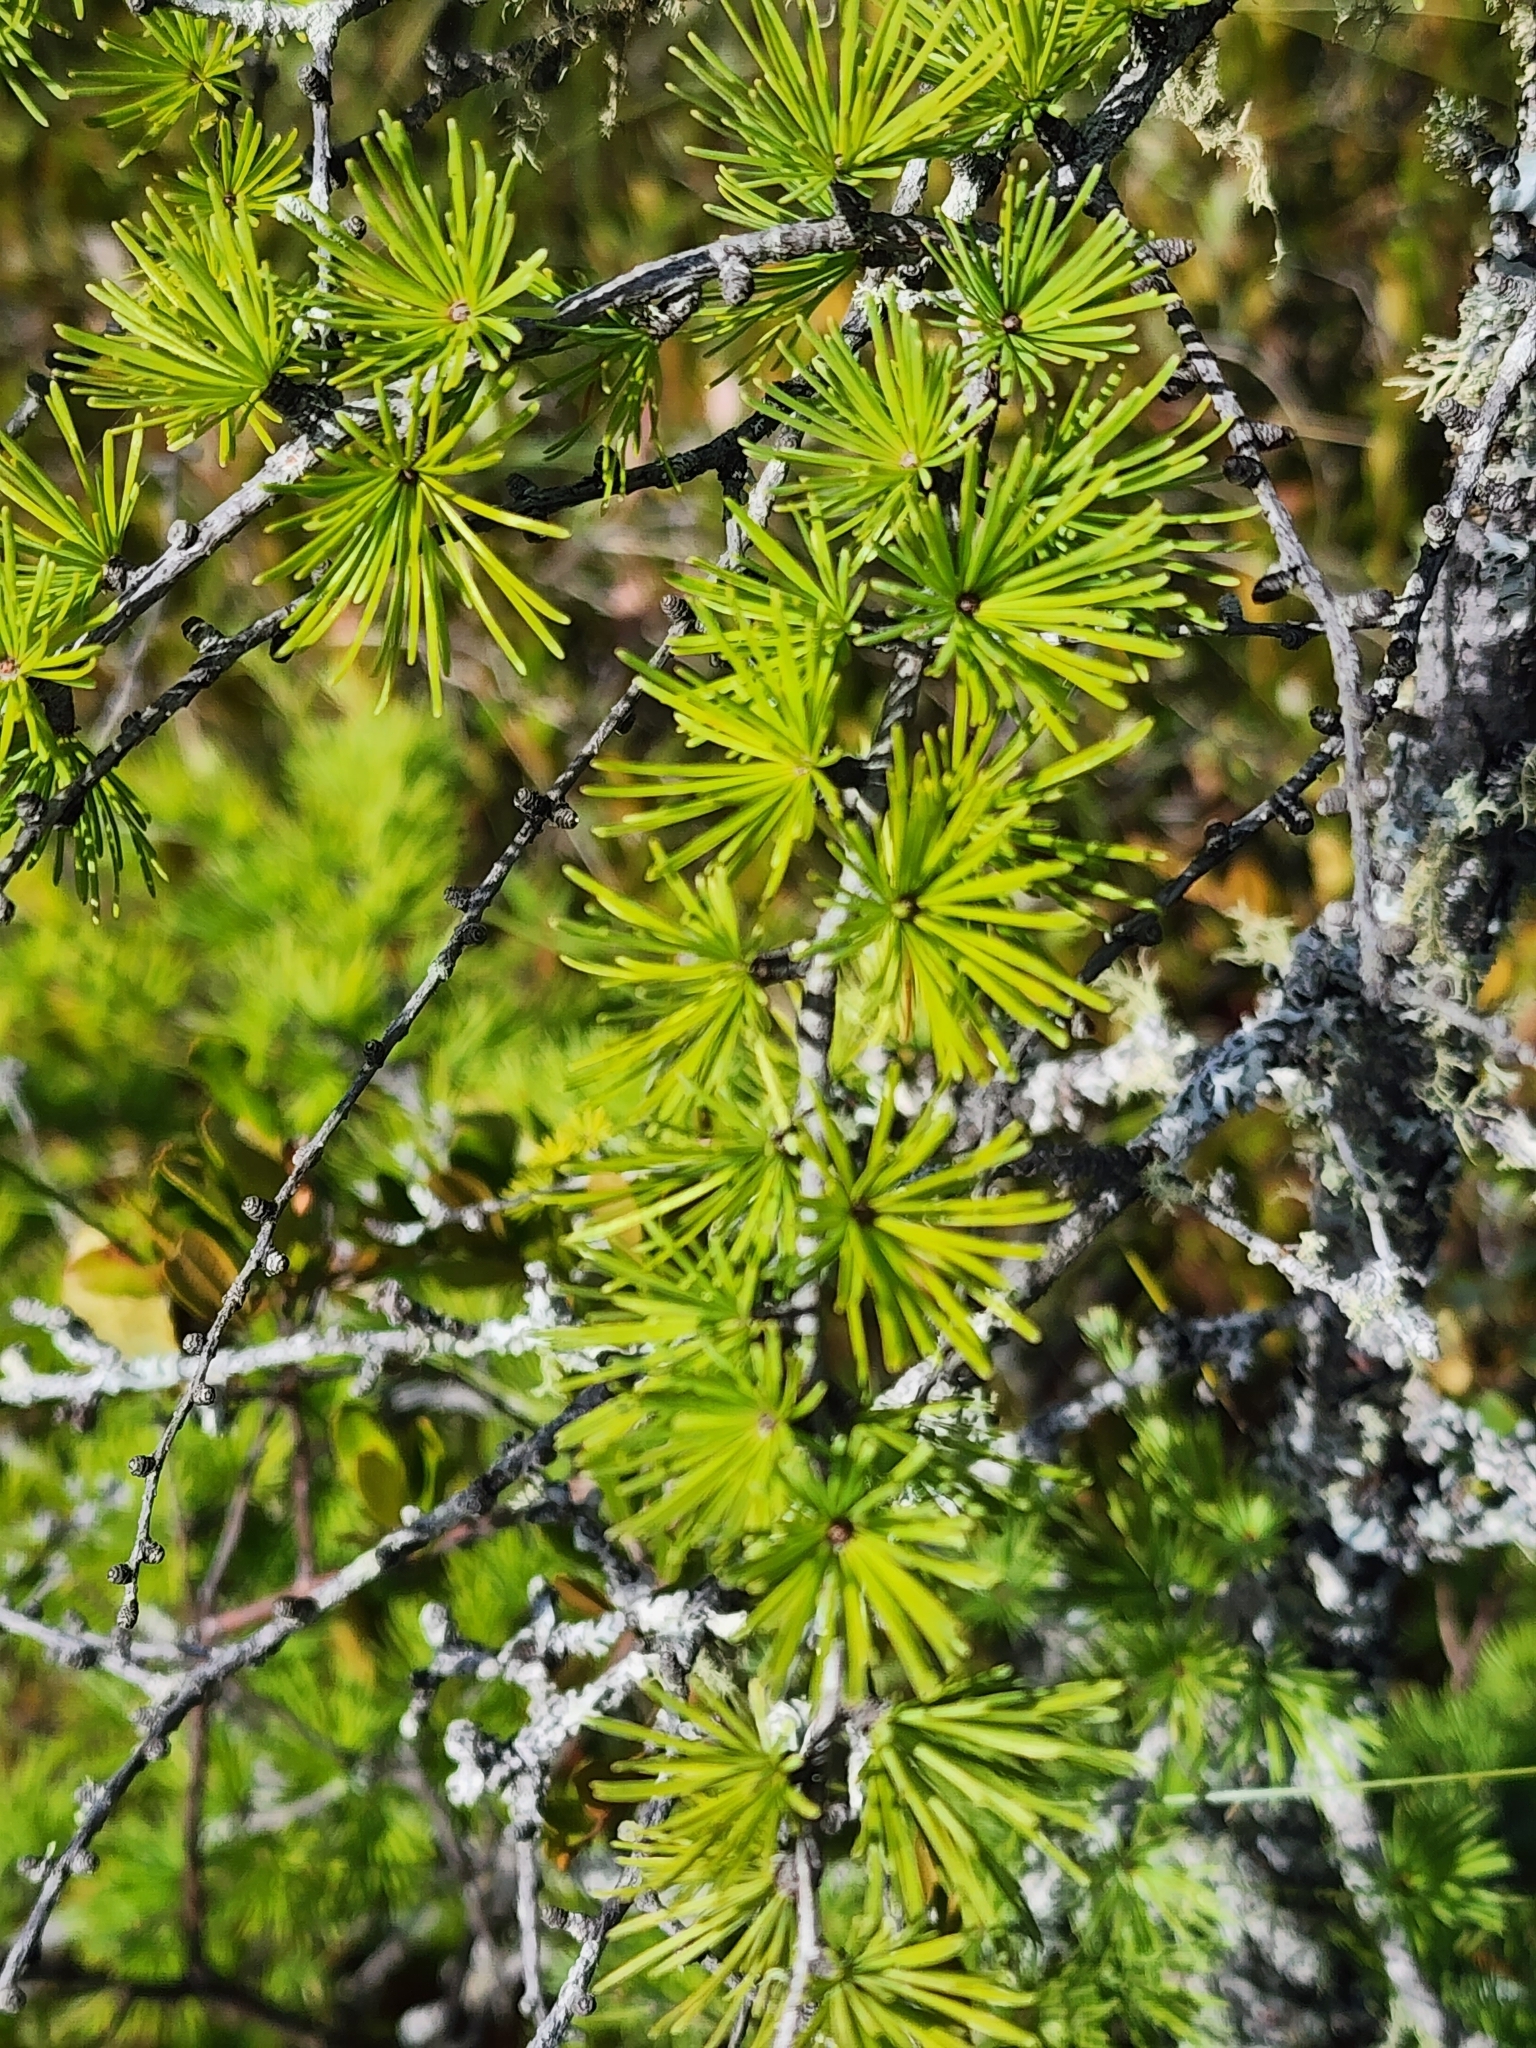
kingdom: Plantae
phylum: Tracheophyta
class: Pinopsida
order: Pinales
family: Pinaceae
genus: Larix
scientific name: Larix laricina
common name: American larch
